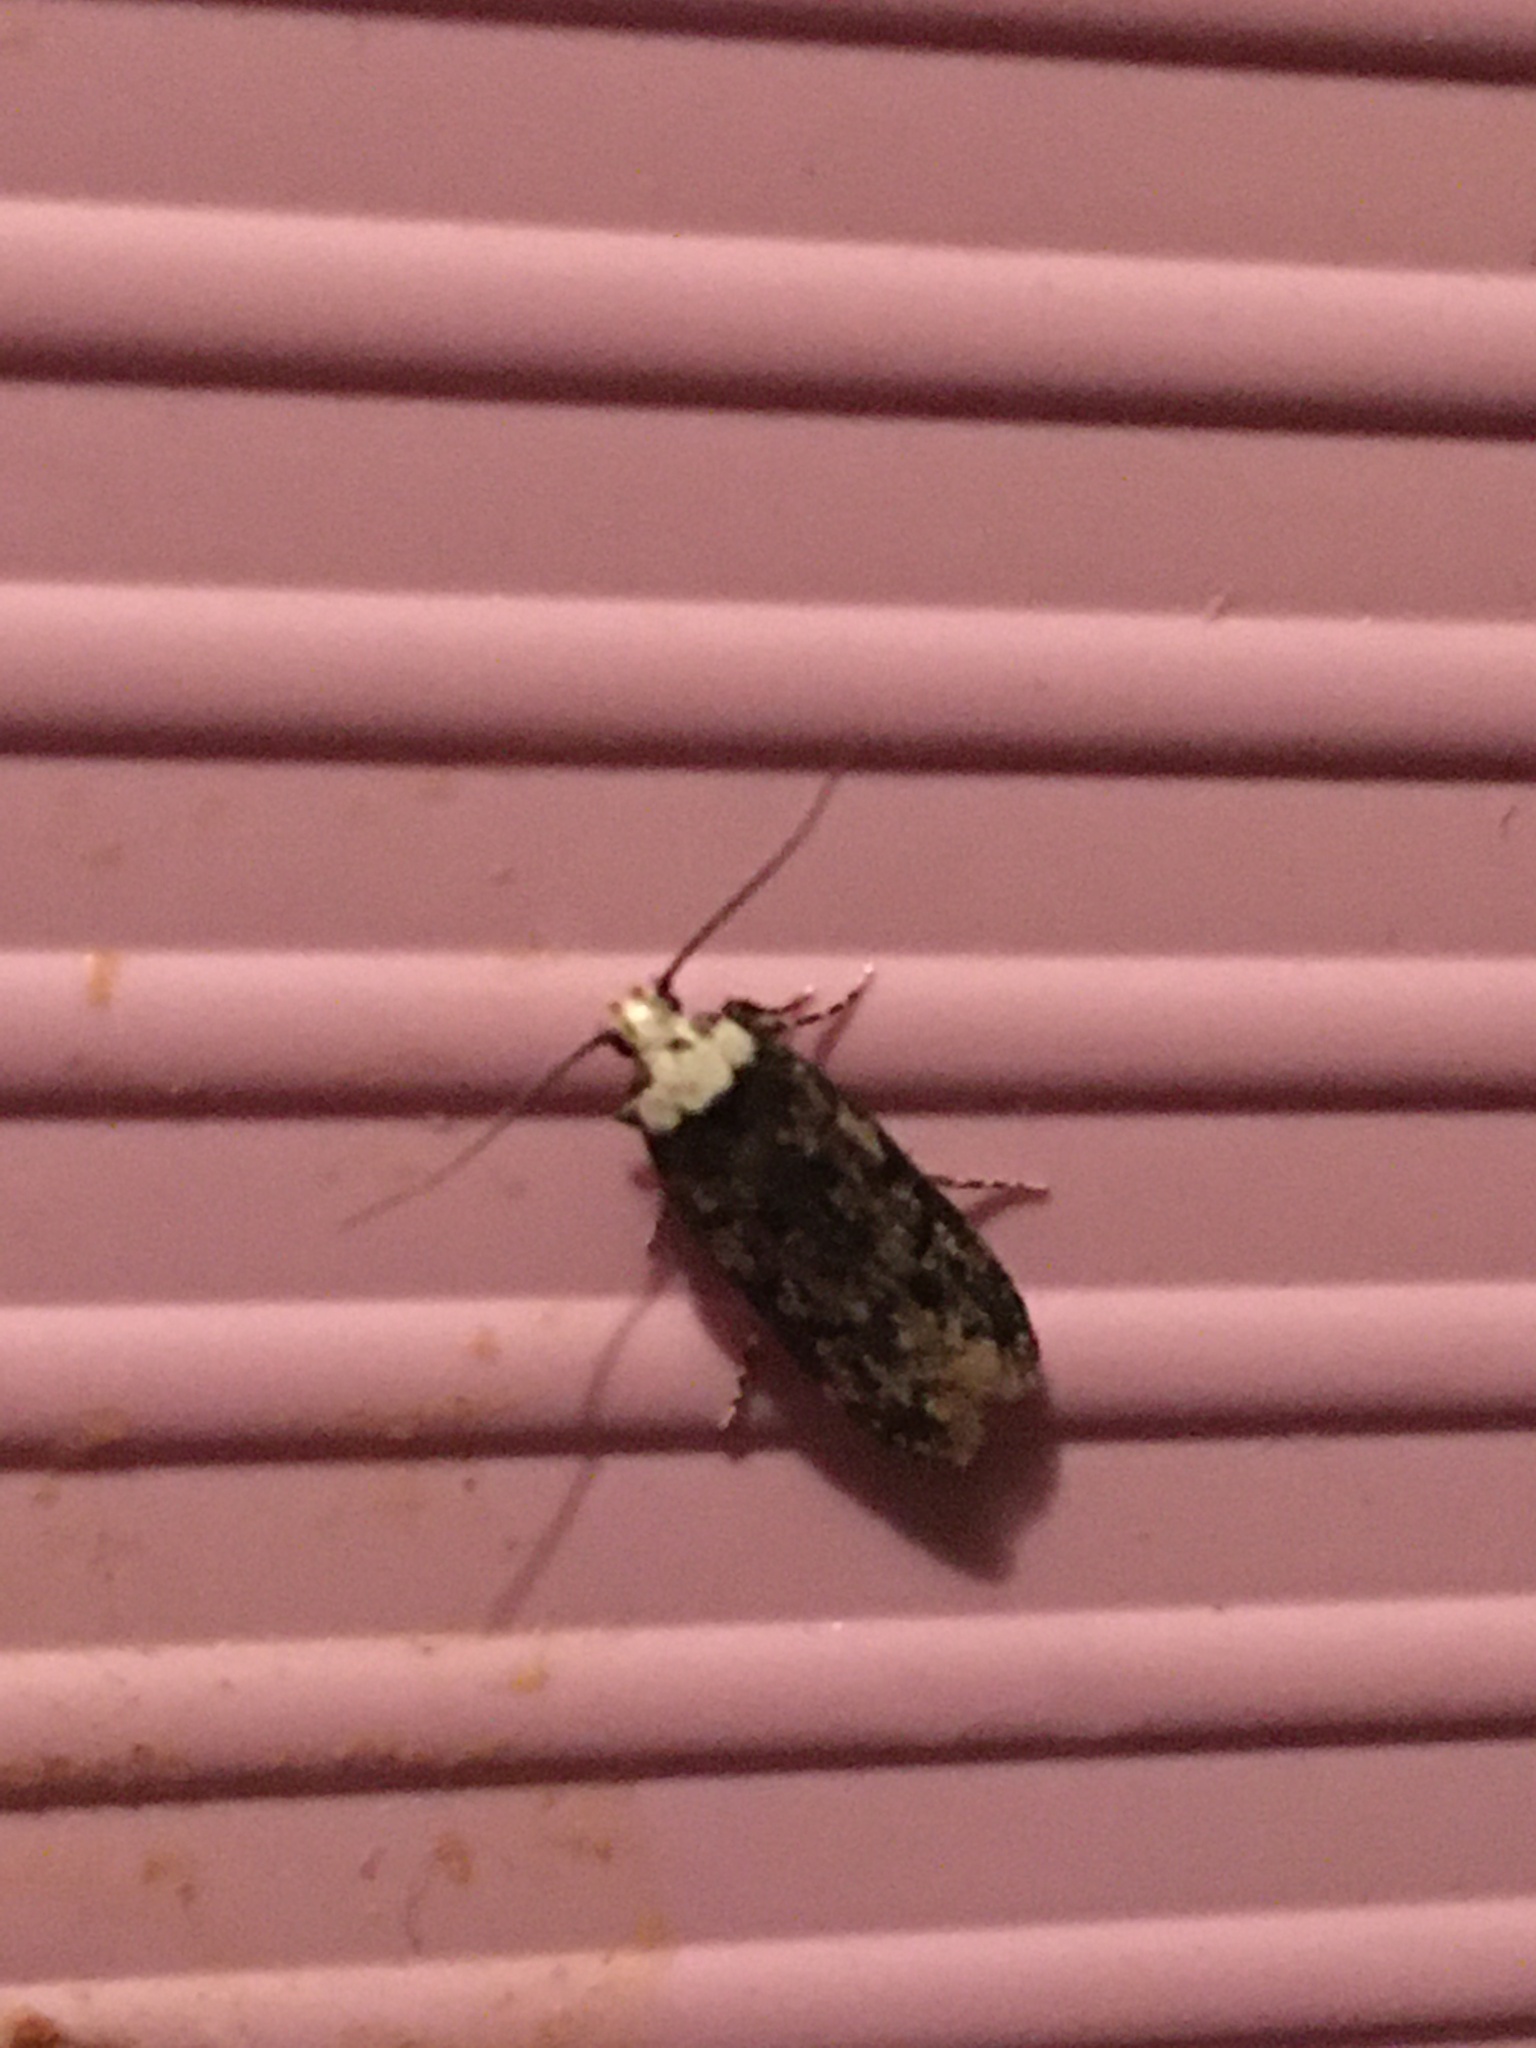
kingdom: Animalia
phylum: Arthropoda
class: Insecta
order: Lepidoptera
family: Oecophoridae
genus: Endrosis
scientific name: Endrosis sarcitrella
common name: White-shouldered house moth
